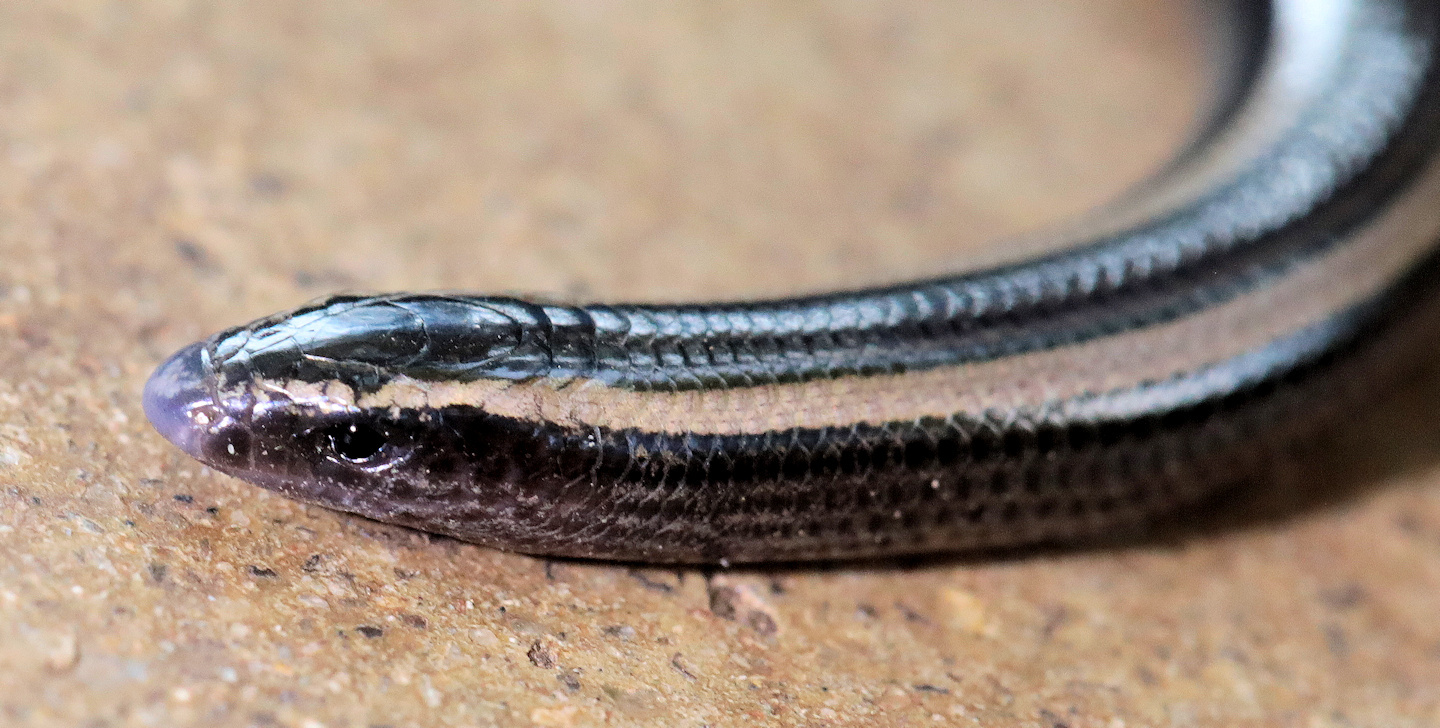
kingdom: Animalia
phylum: Chordata
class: Squamata
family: Scincidae
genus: Scelotes
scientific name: Scelotes bidigittatus
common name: Lowveld dwarf burrowing skink
